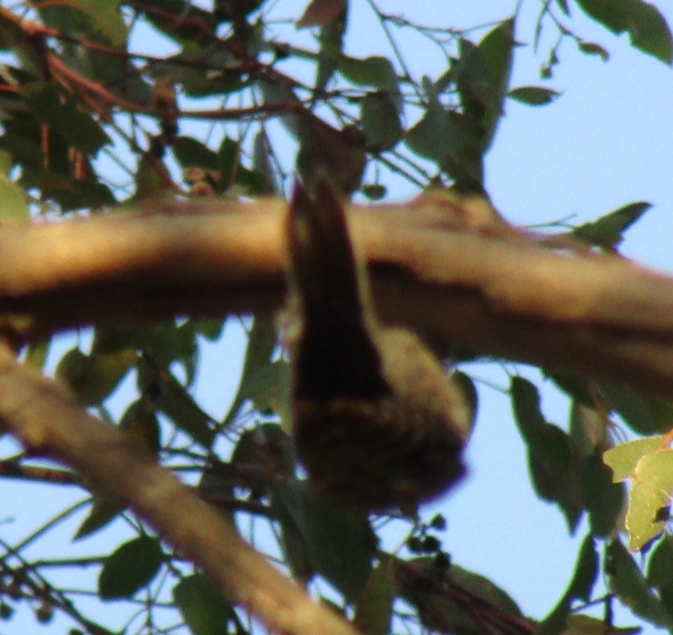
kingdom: Animalia
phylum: Chordata
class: Aves
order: Piciformes
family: Picidae
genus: Dryobates
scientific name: Dryobates nuttallii
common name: Nuttall's woodpecker
